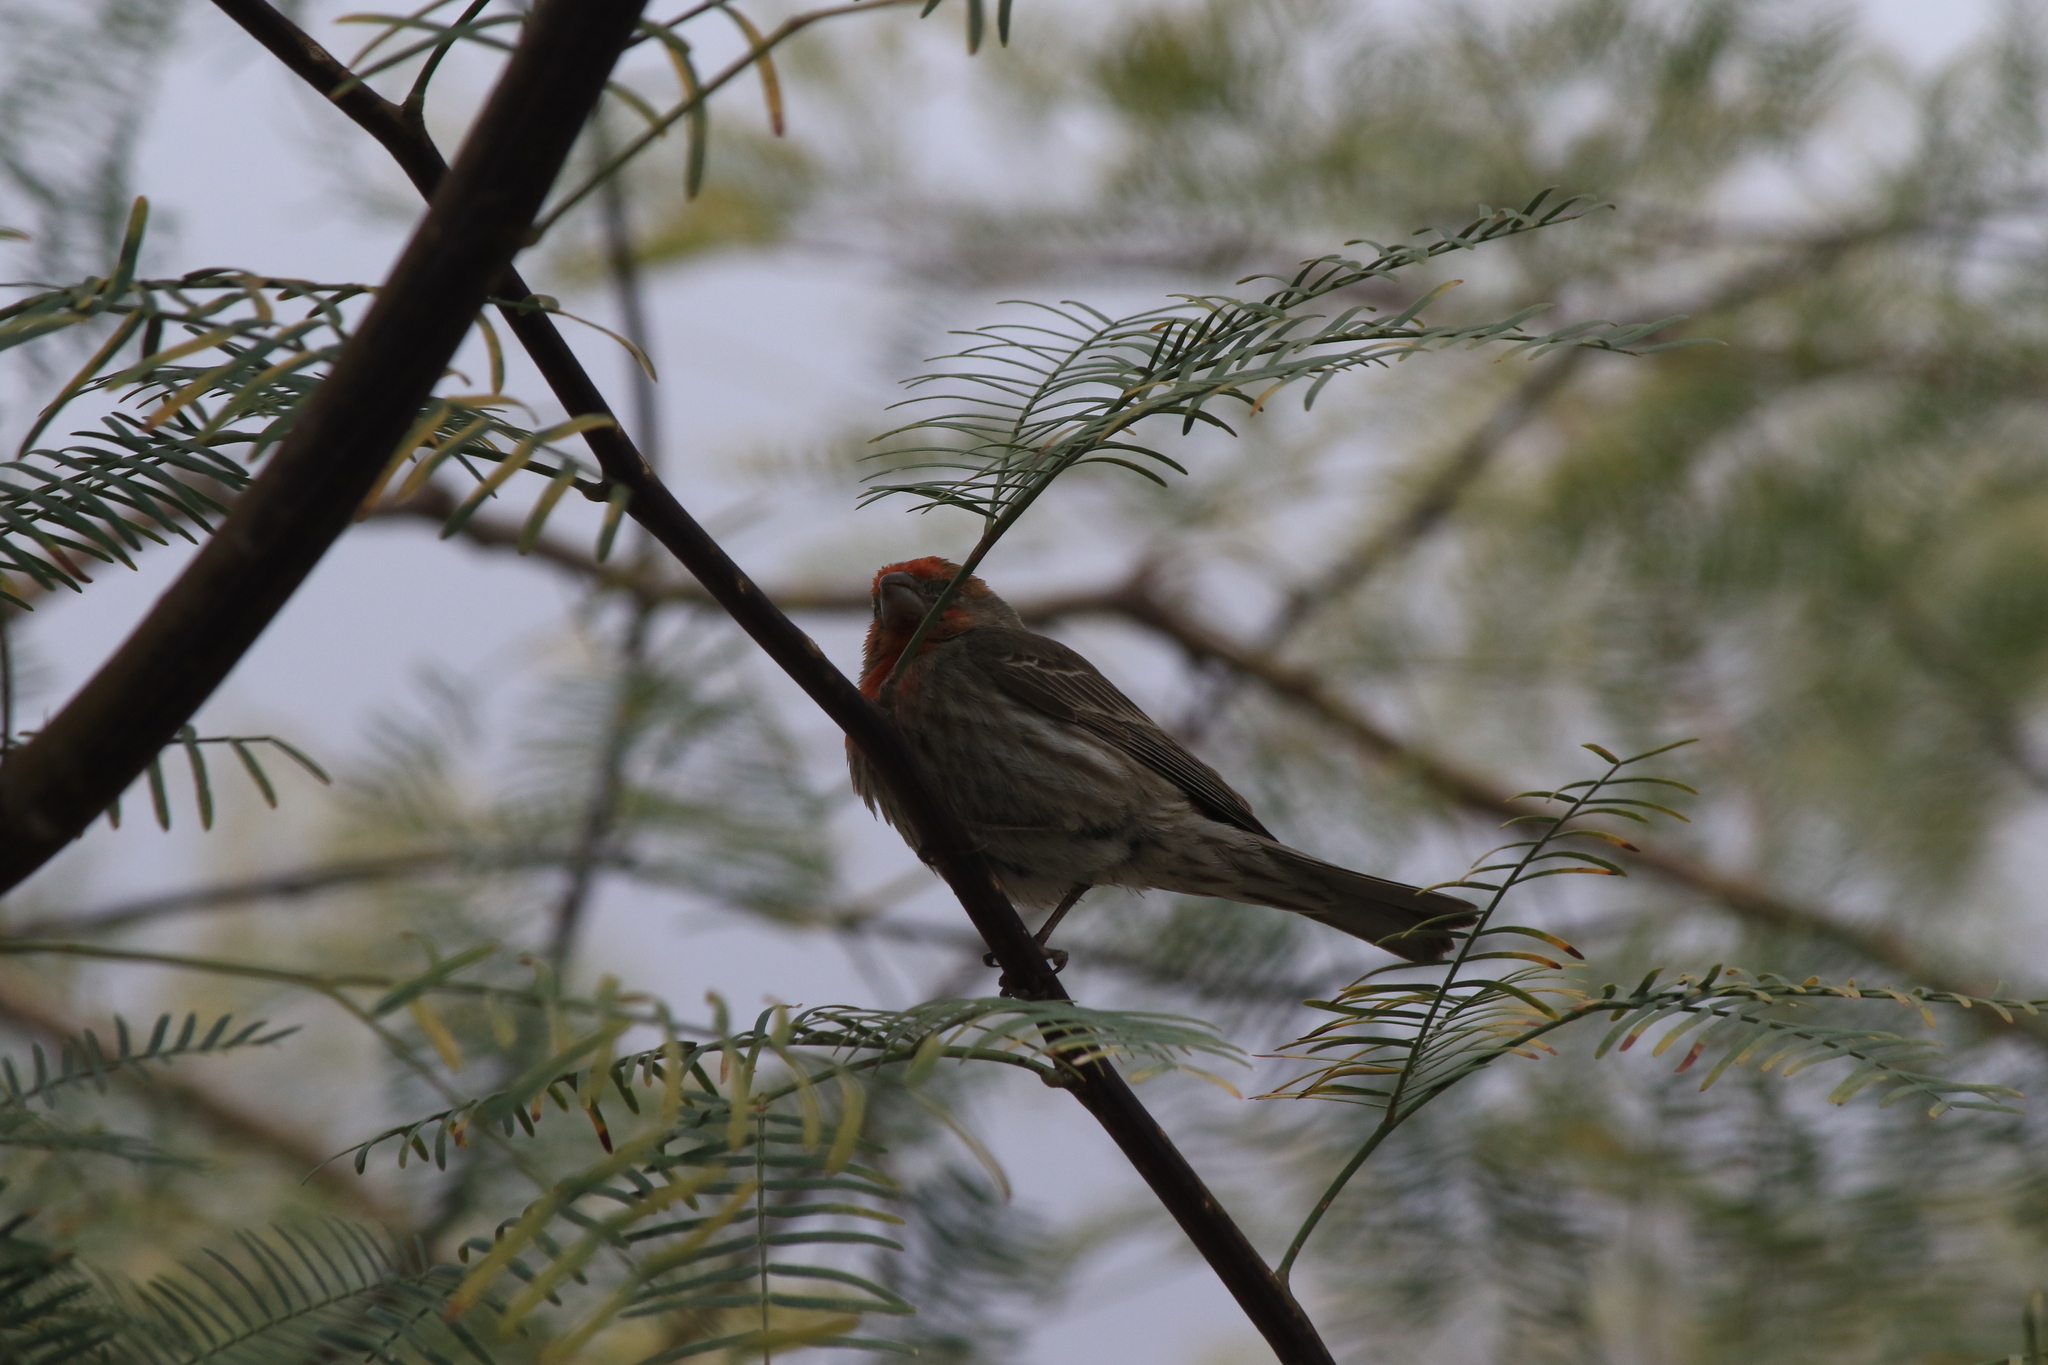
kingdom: Animalia
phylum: Chordata
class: Aves
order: Passeriformes
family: Fringillidae
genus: Haemorhous
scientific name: Haemorhous mexicanus
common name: House finch
